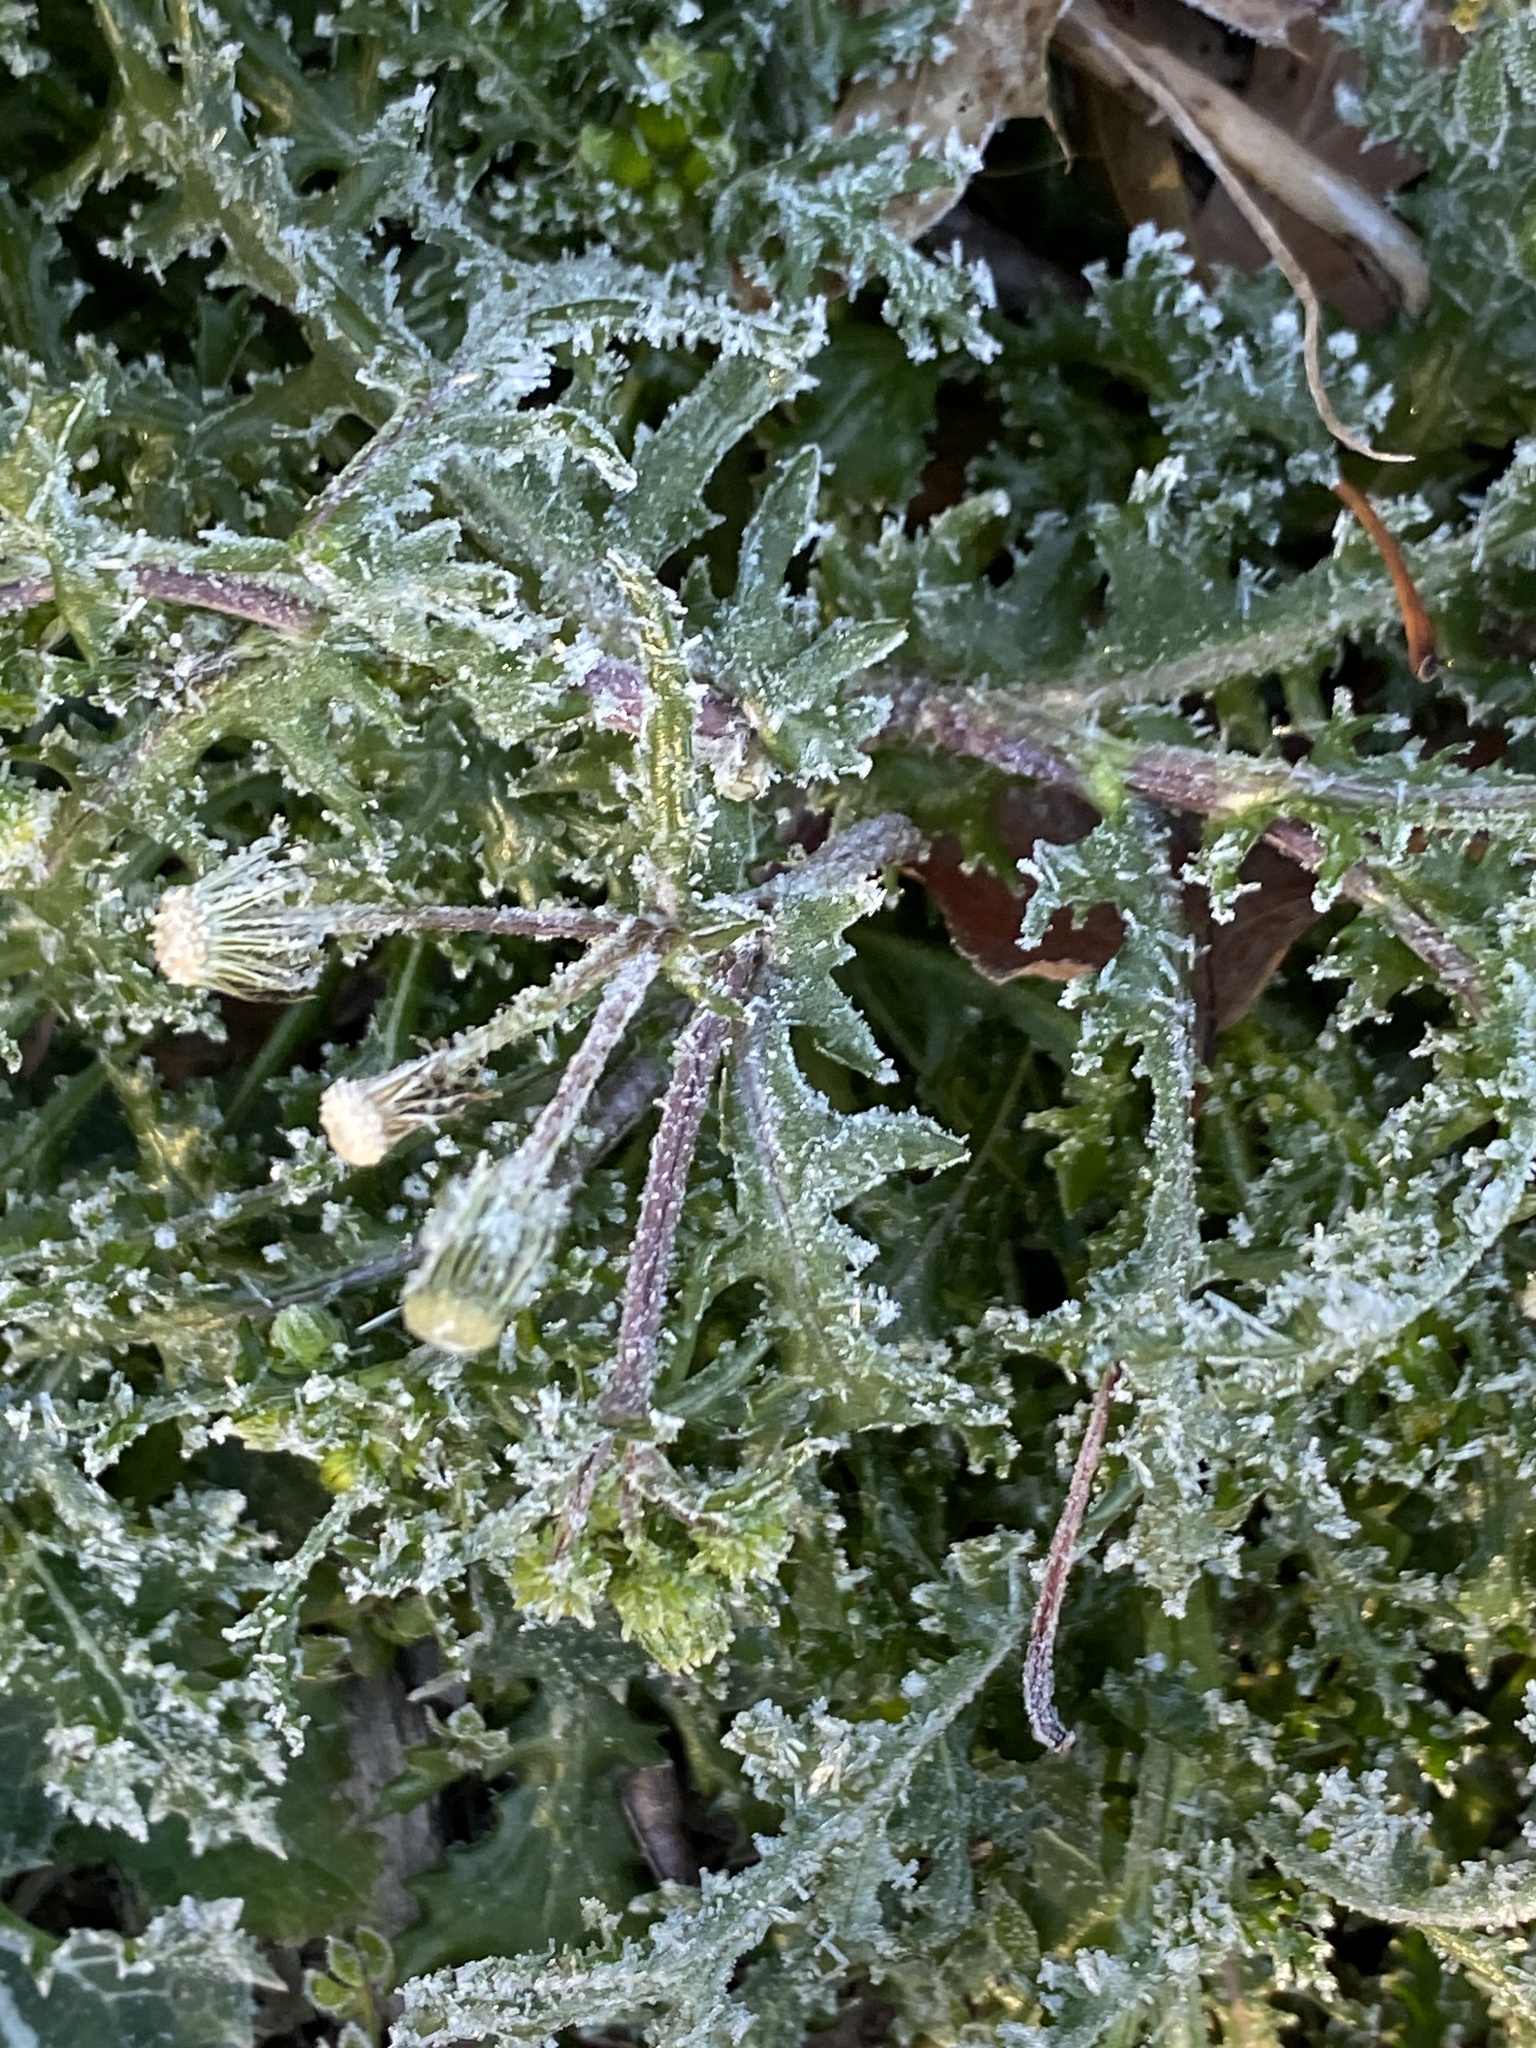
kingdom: Plantae
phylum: Tracheophyta
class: Magnoliopsida
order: Asterales
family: Asteraceae
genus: Senecio
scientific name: Senecio vulgaris
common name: Old-man-in-the-spring
